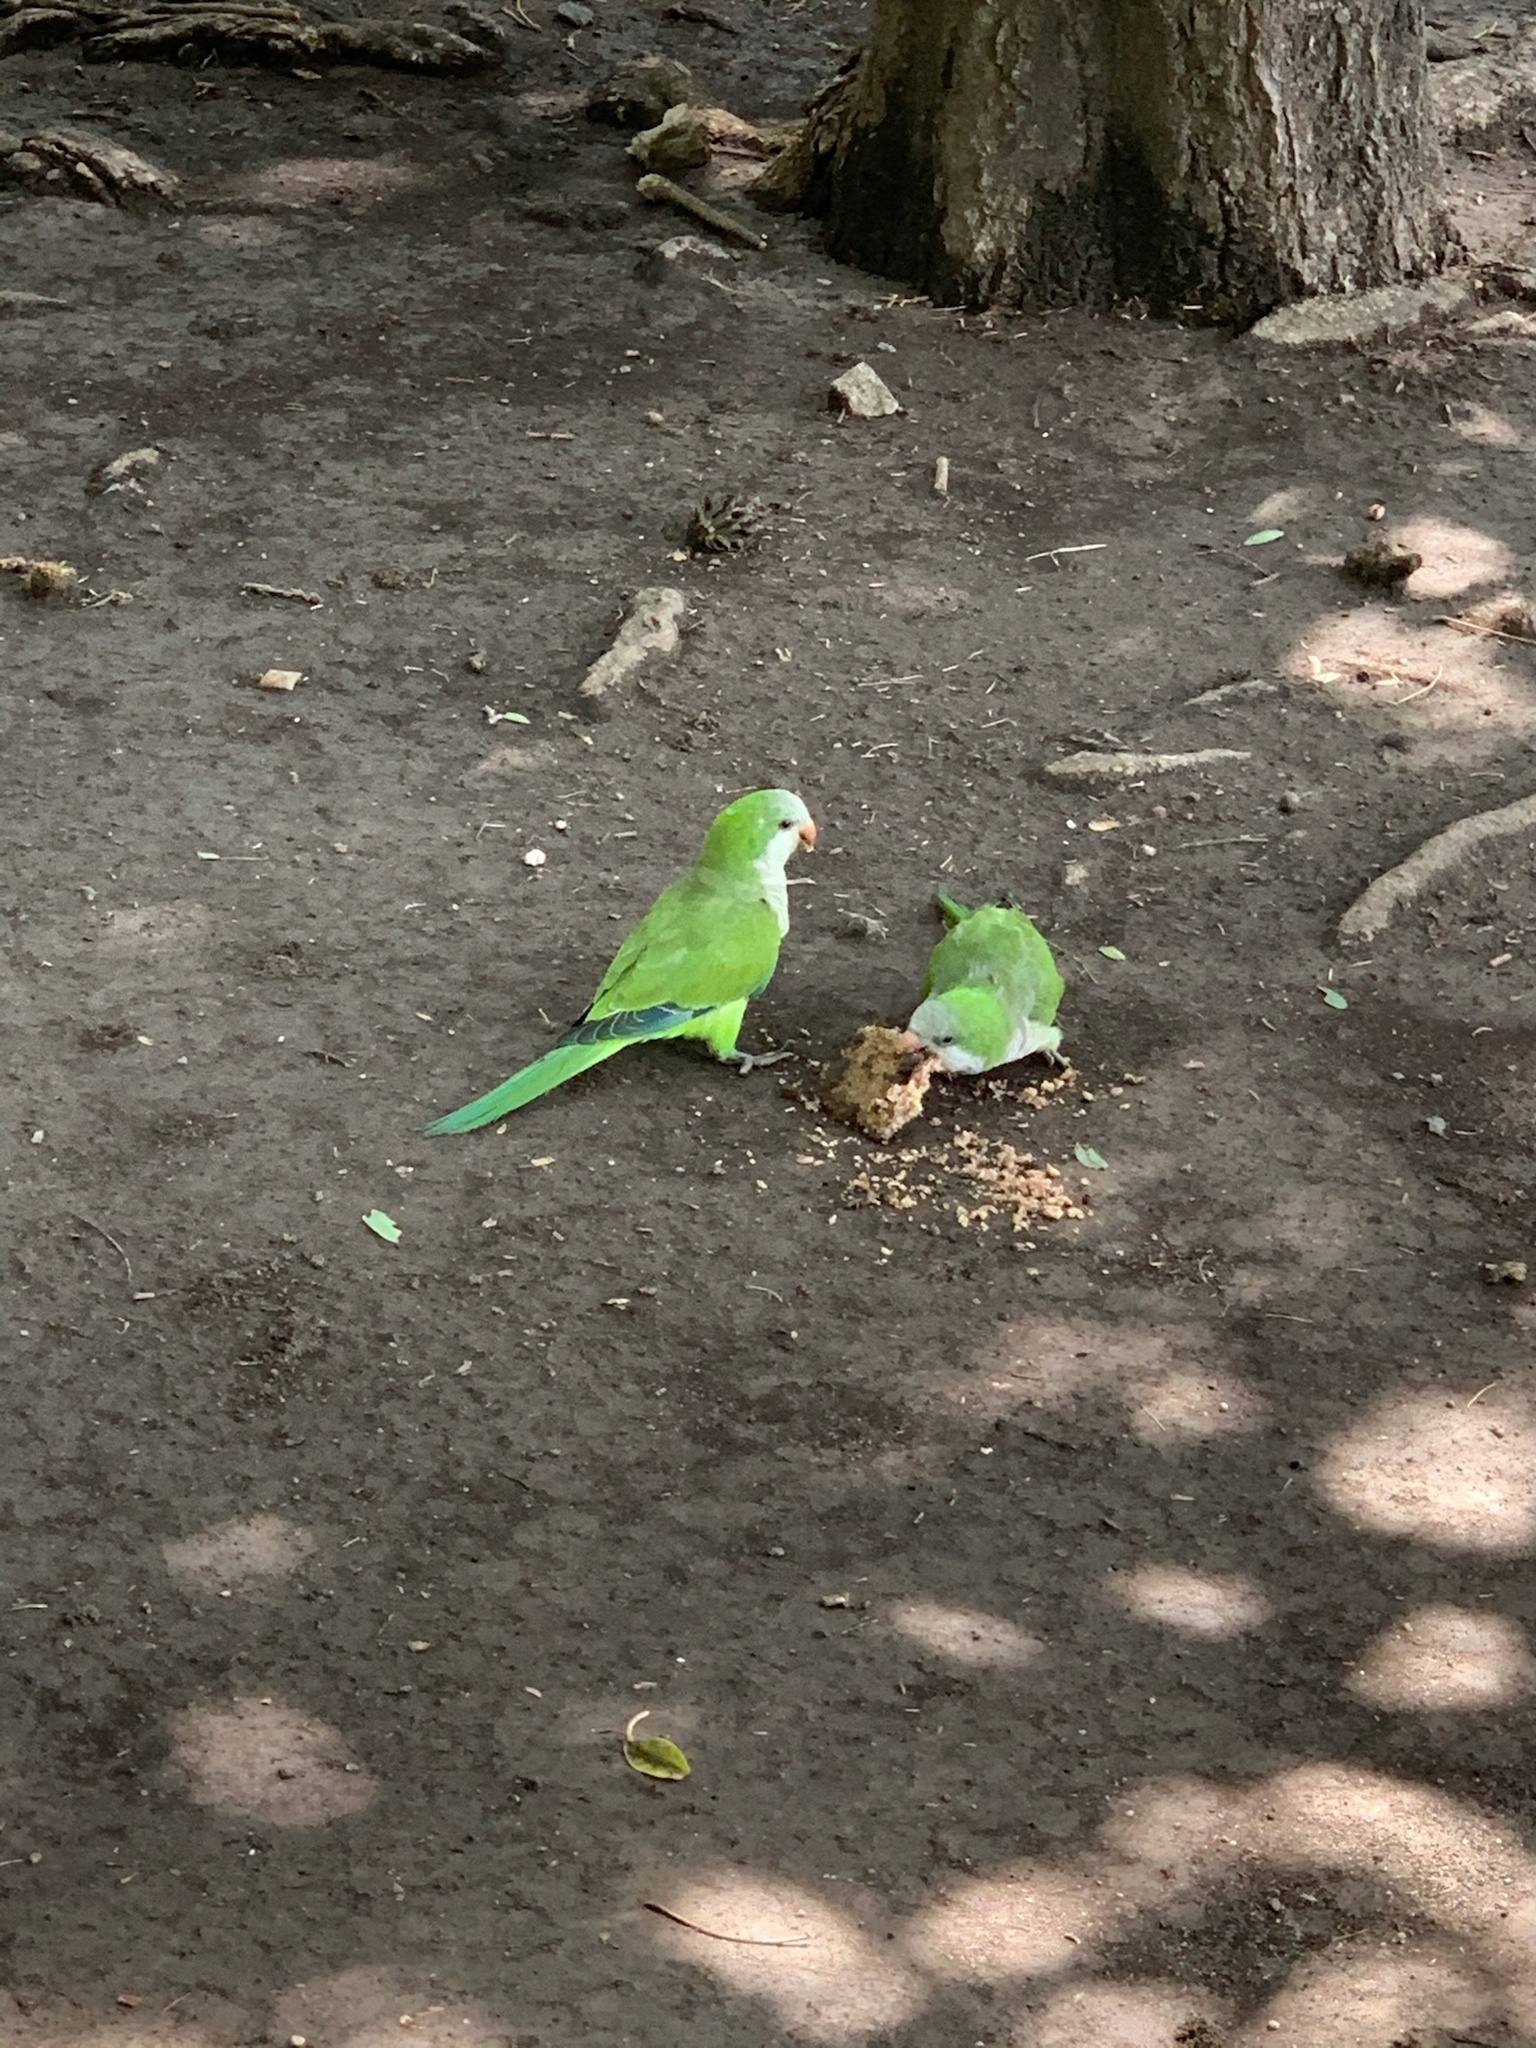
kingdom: Animalia
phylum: Chordata
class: Aves
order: Psittaciformes
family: Psittacidae
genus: Myiopsitta
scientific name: Myiopsitta monachus
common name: Monk parakeet
